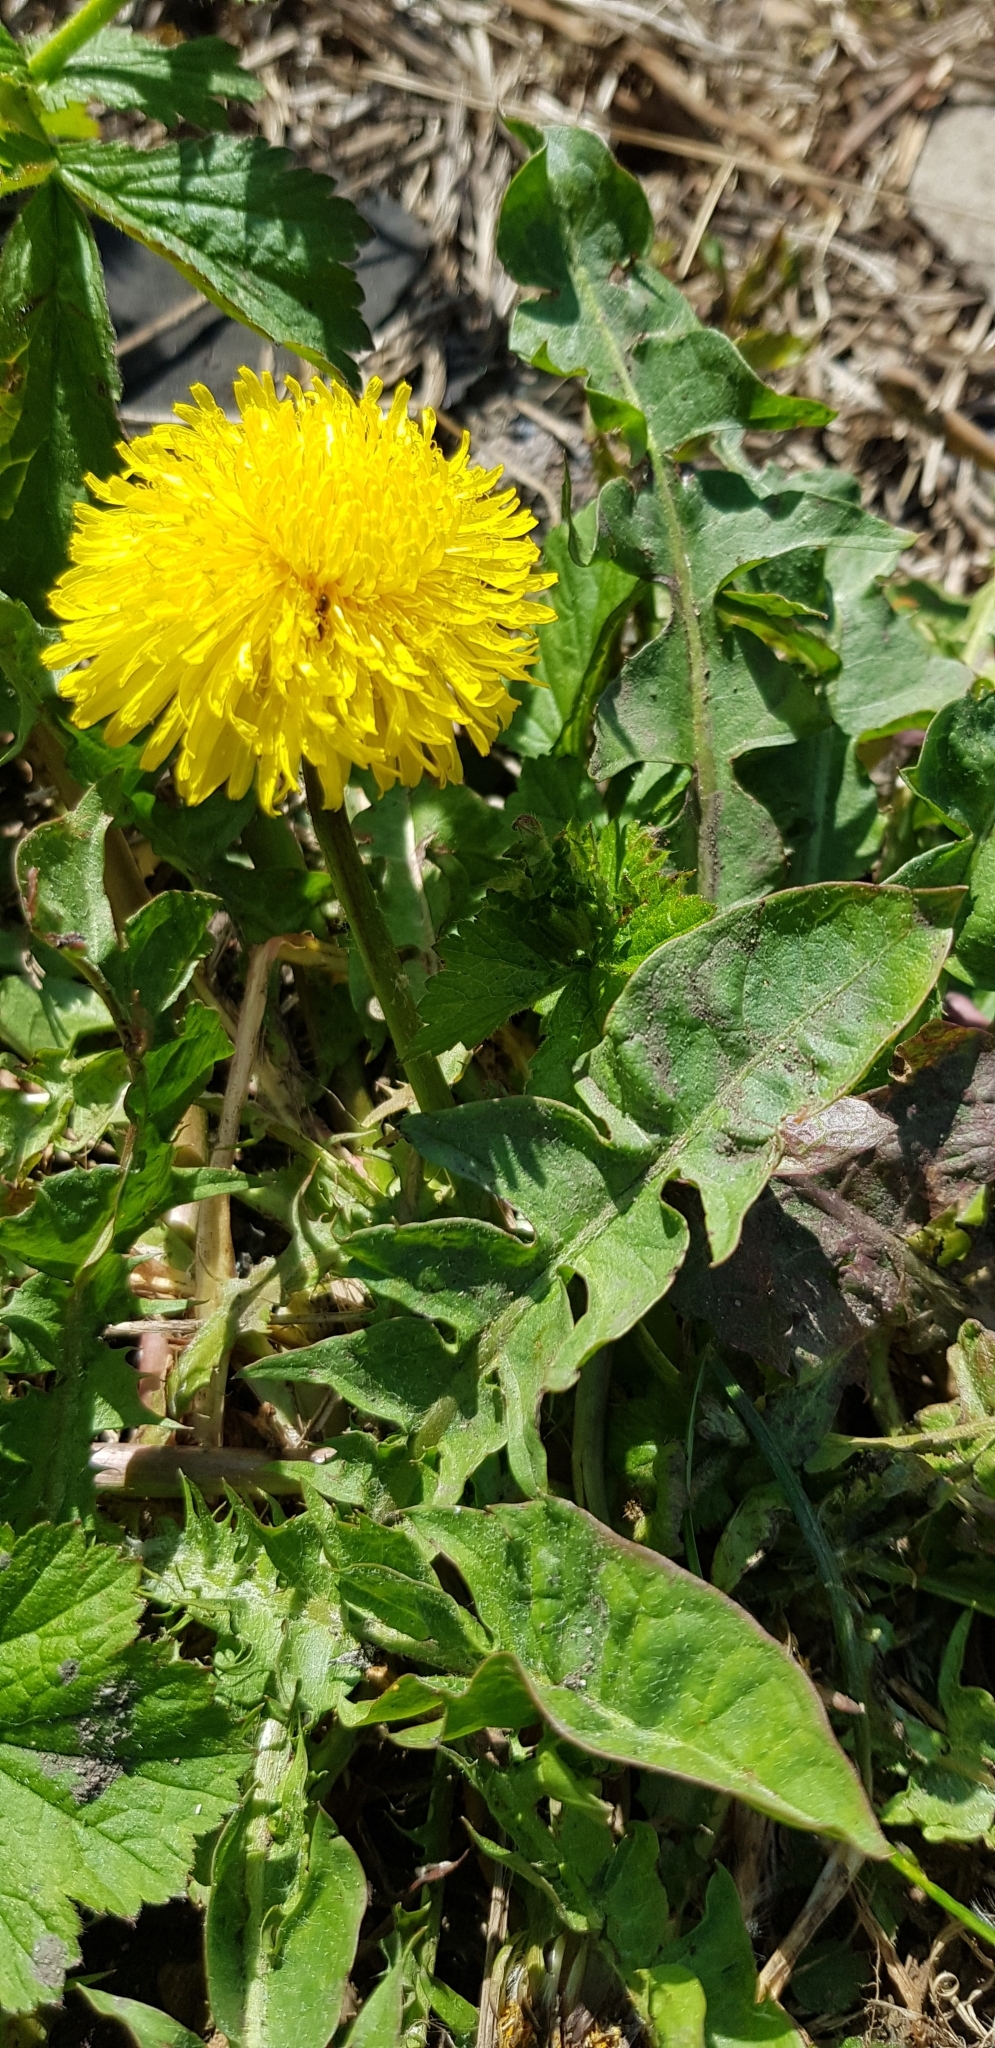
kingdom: Plantae
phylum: Tracheophyta
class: Magnoliopsida
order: Asterales
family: Asteraceae
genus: Taraxacum
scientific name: Taraxacum officinale
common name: Common dandelion
